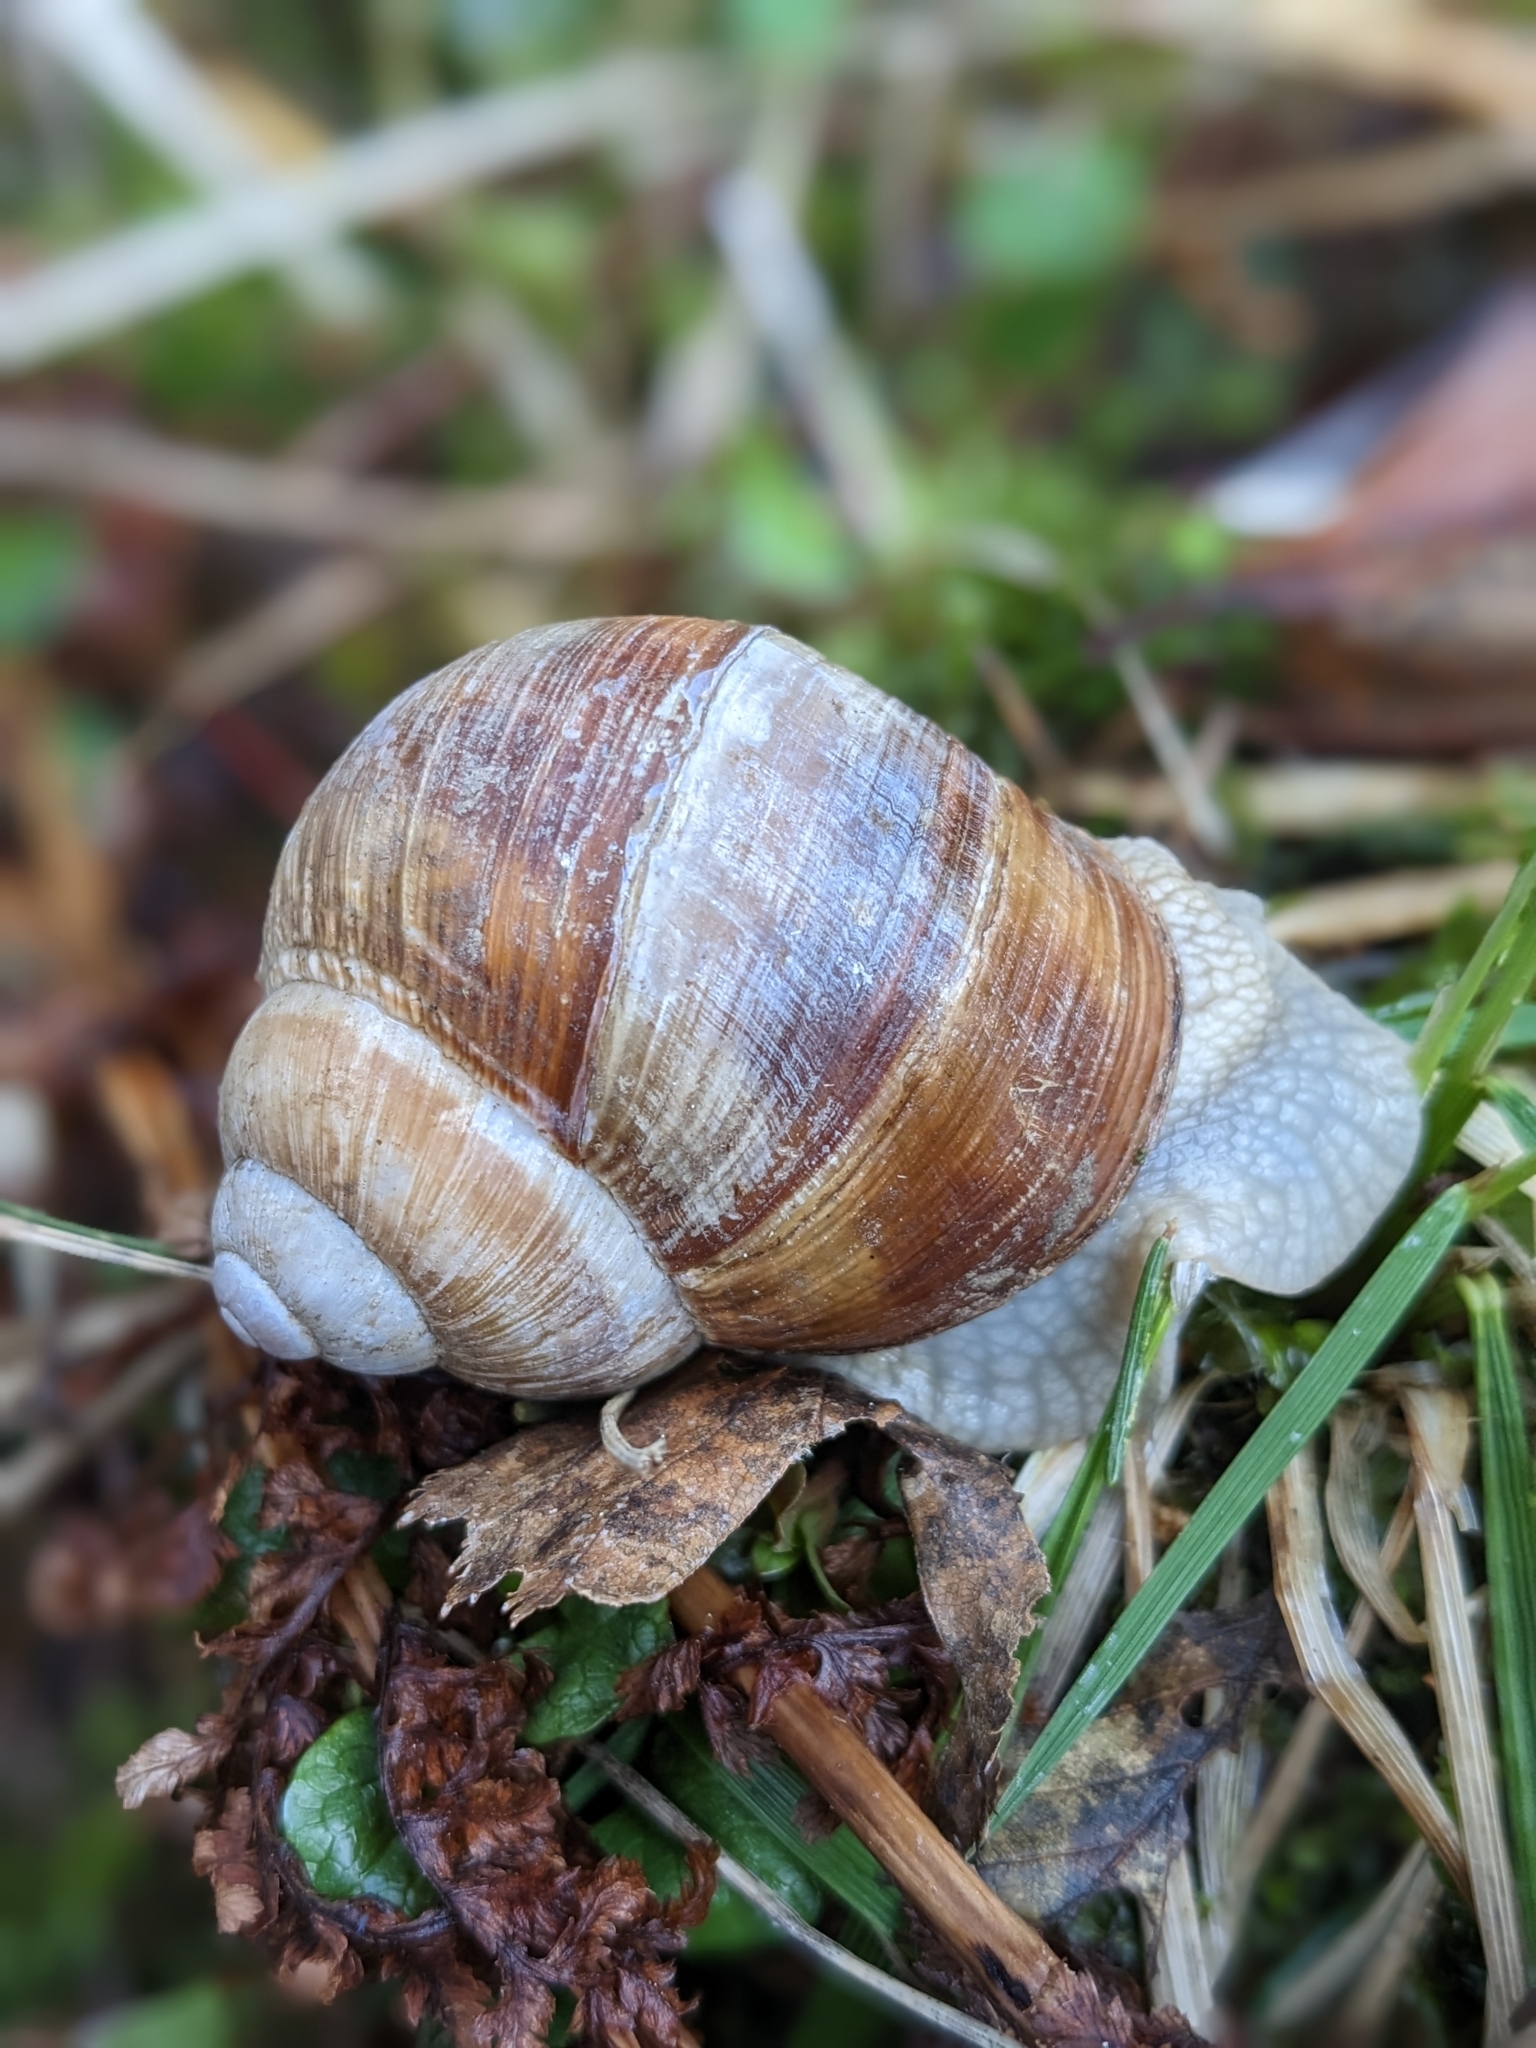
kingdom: Animalia
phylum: Mollusca
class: Gastropoda
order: Stylommatophora
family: Helicidae
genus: Helix
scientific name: Helix pomatia
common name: Roman snail
